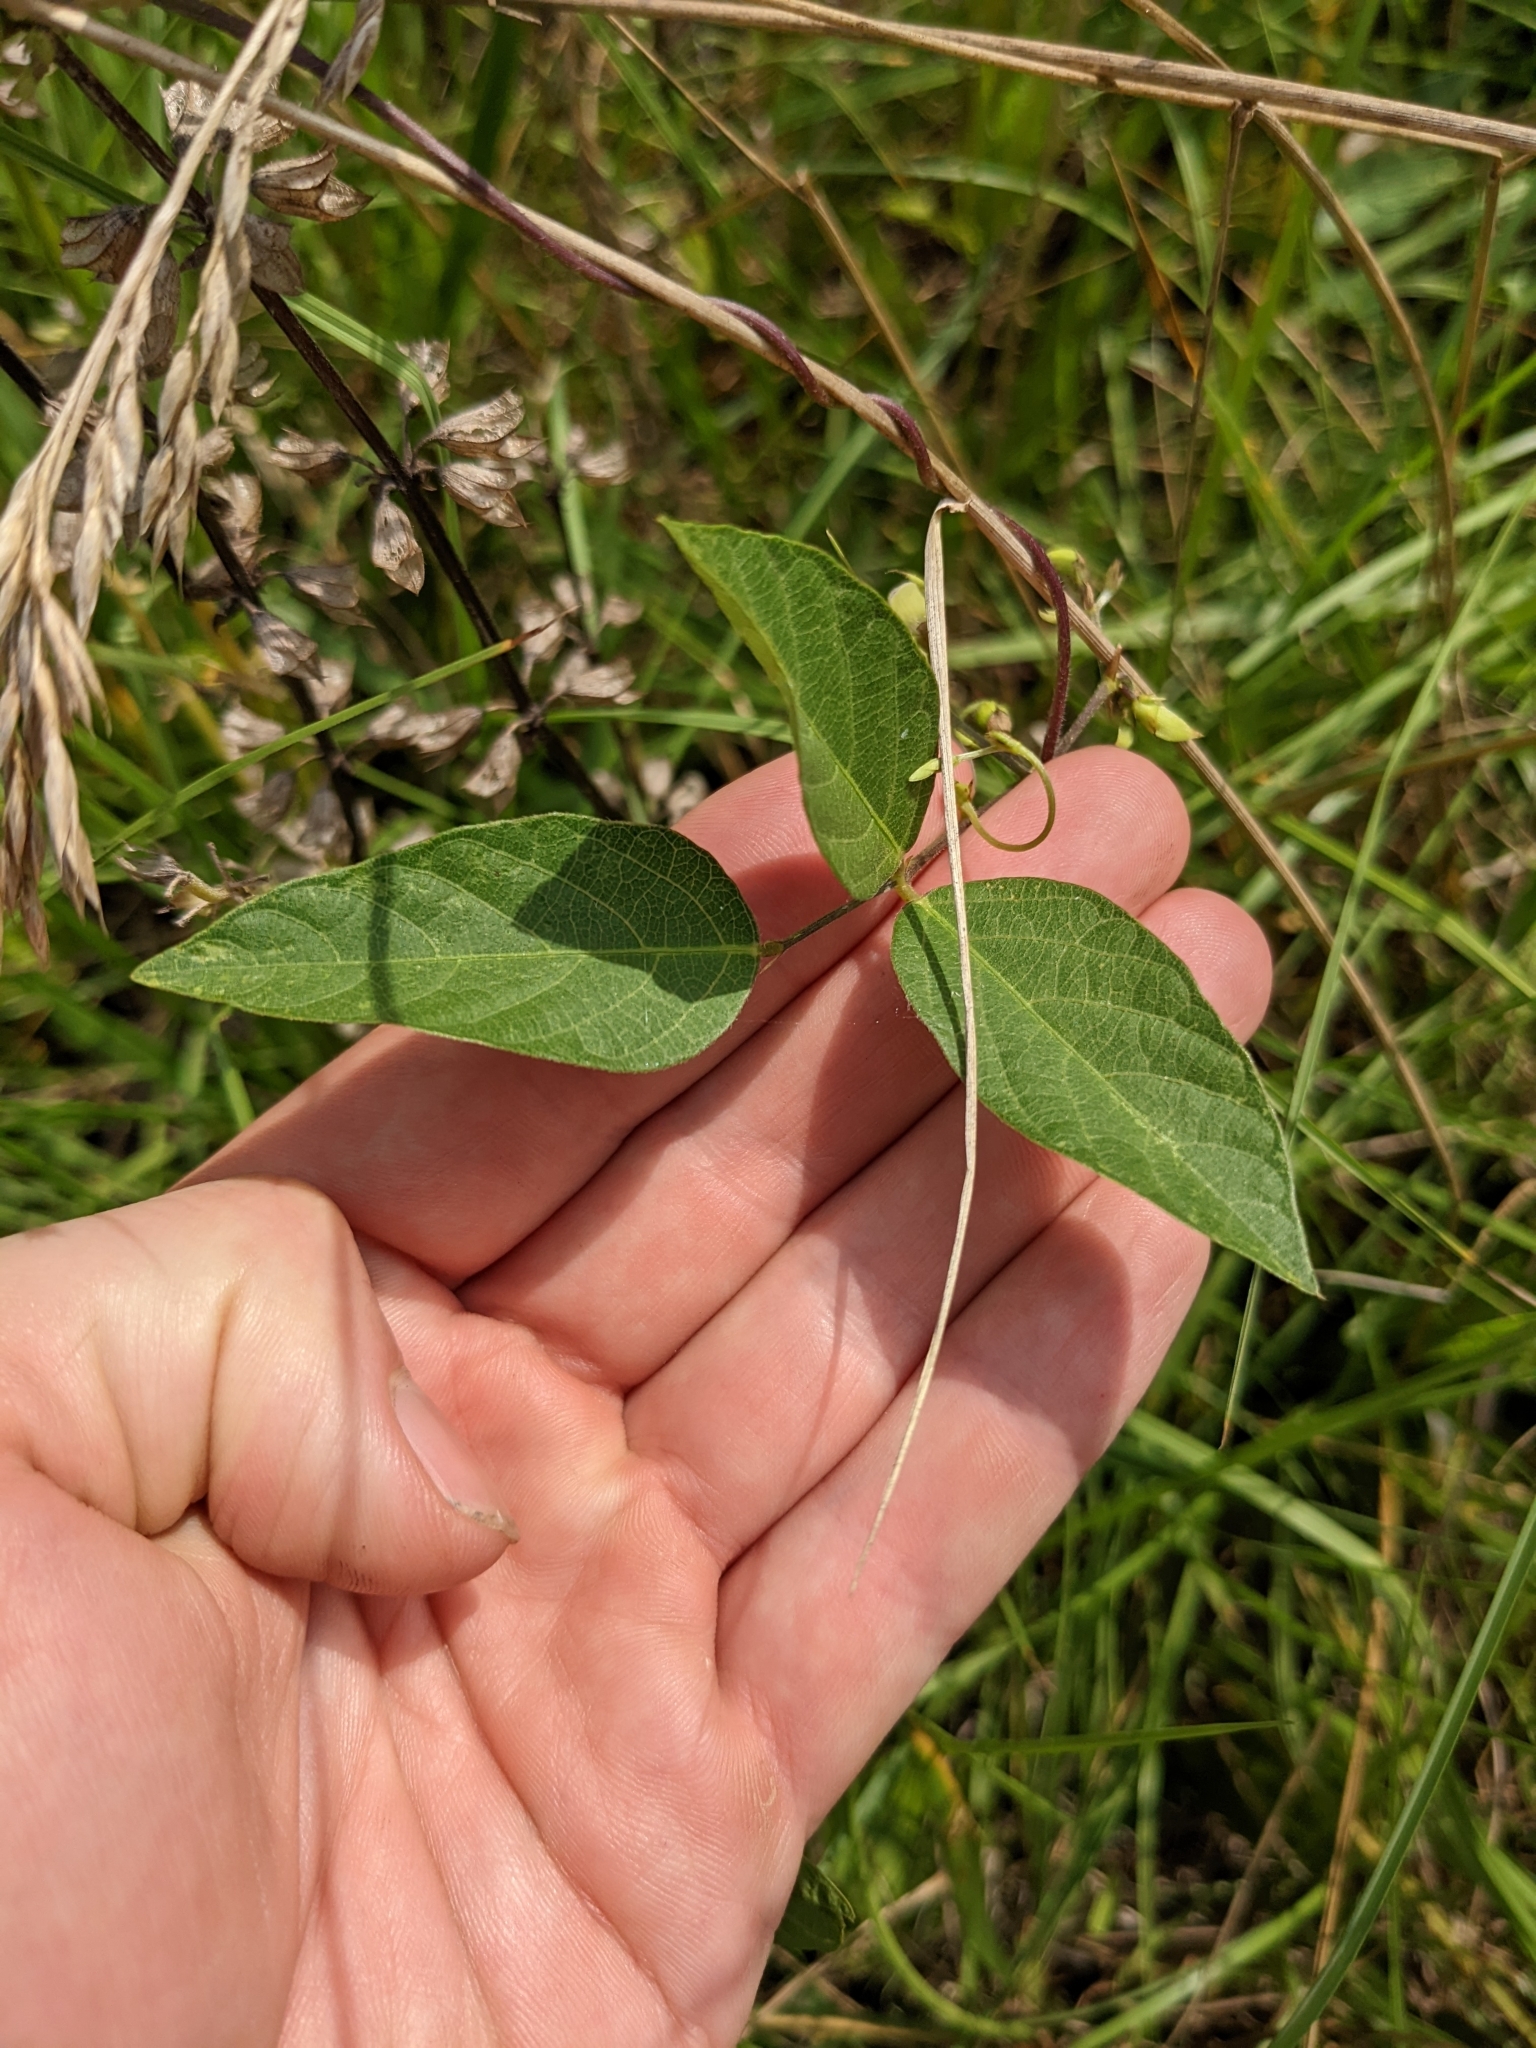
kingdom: Plantae
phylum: Tracheophyta
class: Magnoliopsida
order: Fabales
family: Fabaceae
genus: Centrosema
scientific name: Centrosema virginianum
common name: Butterfly-pea
